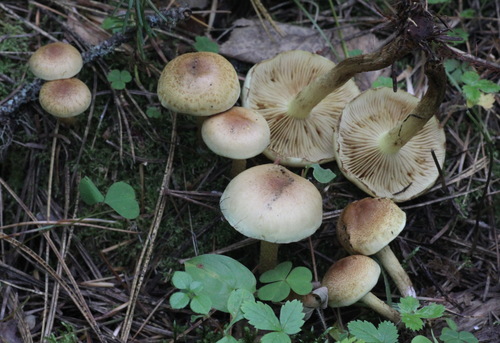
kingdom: Fungi
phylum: Basidiomycota
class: Agaricomycetes
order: Agaricales
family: Strophariaceae
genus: Pholiota
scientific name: Pholiota elegans
